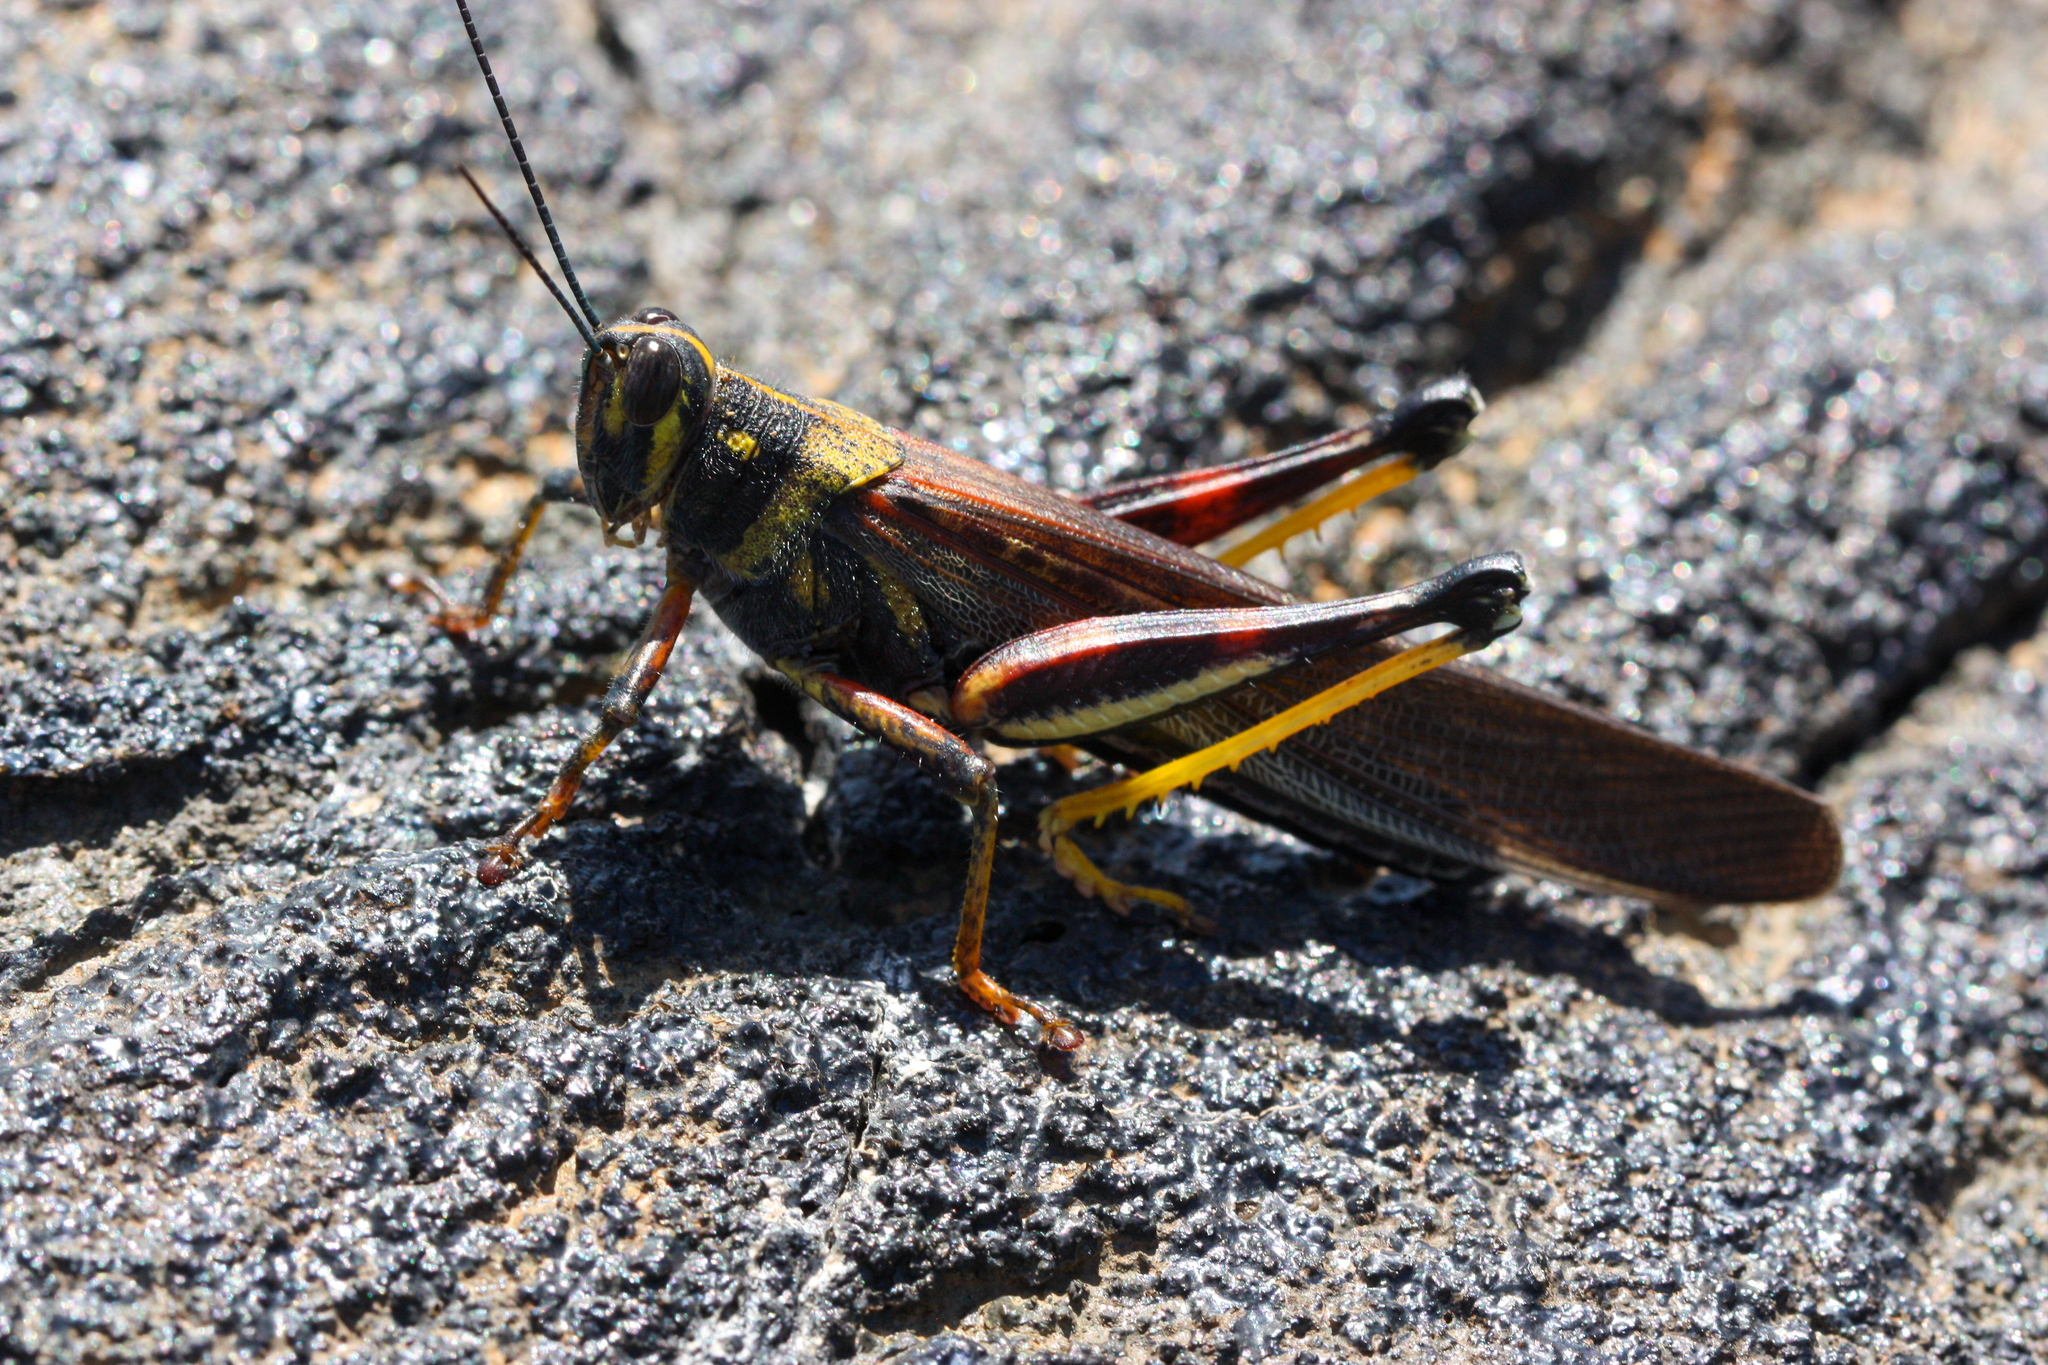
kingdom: Animalia
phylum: Arthropoda
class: Insecta
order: Orthoptera
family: Acrididae
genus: Schistocerca
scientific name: Schistocerca melanocera
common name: Large painted locust
